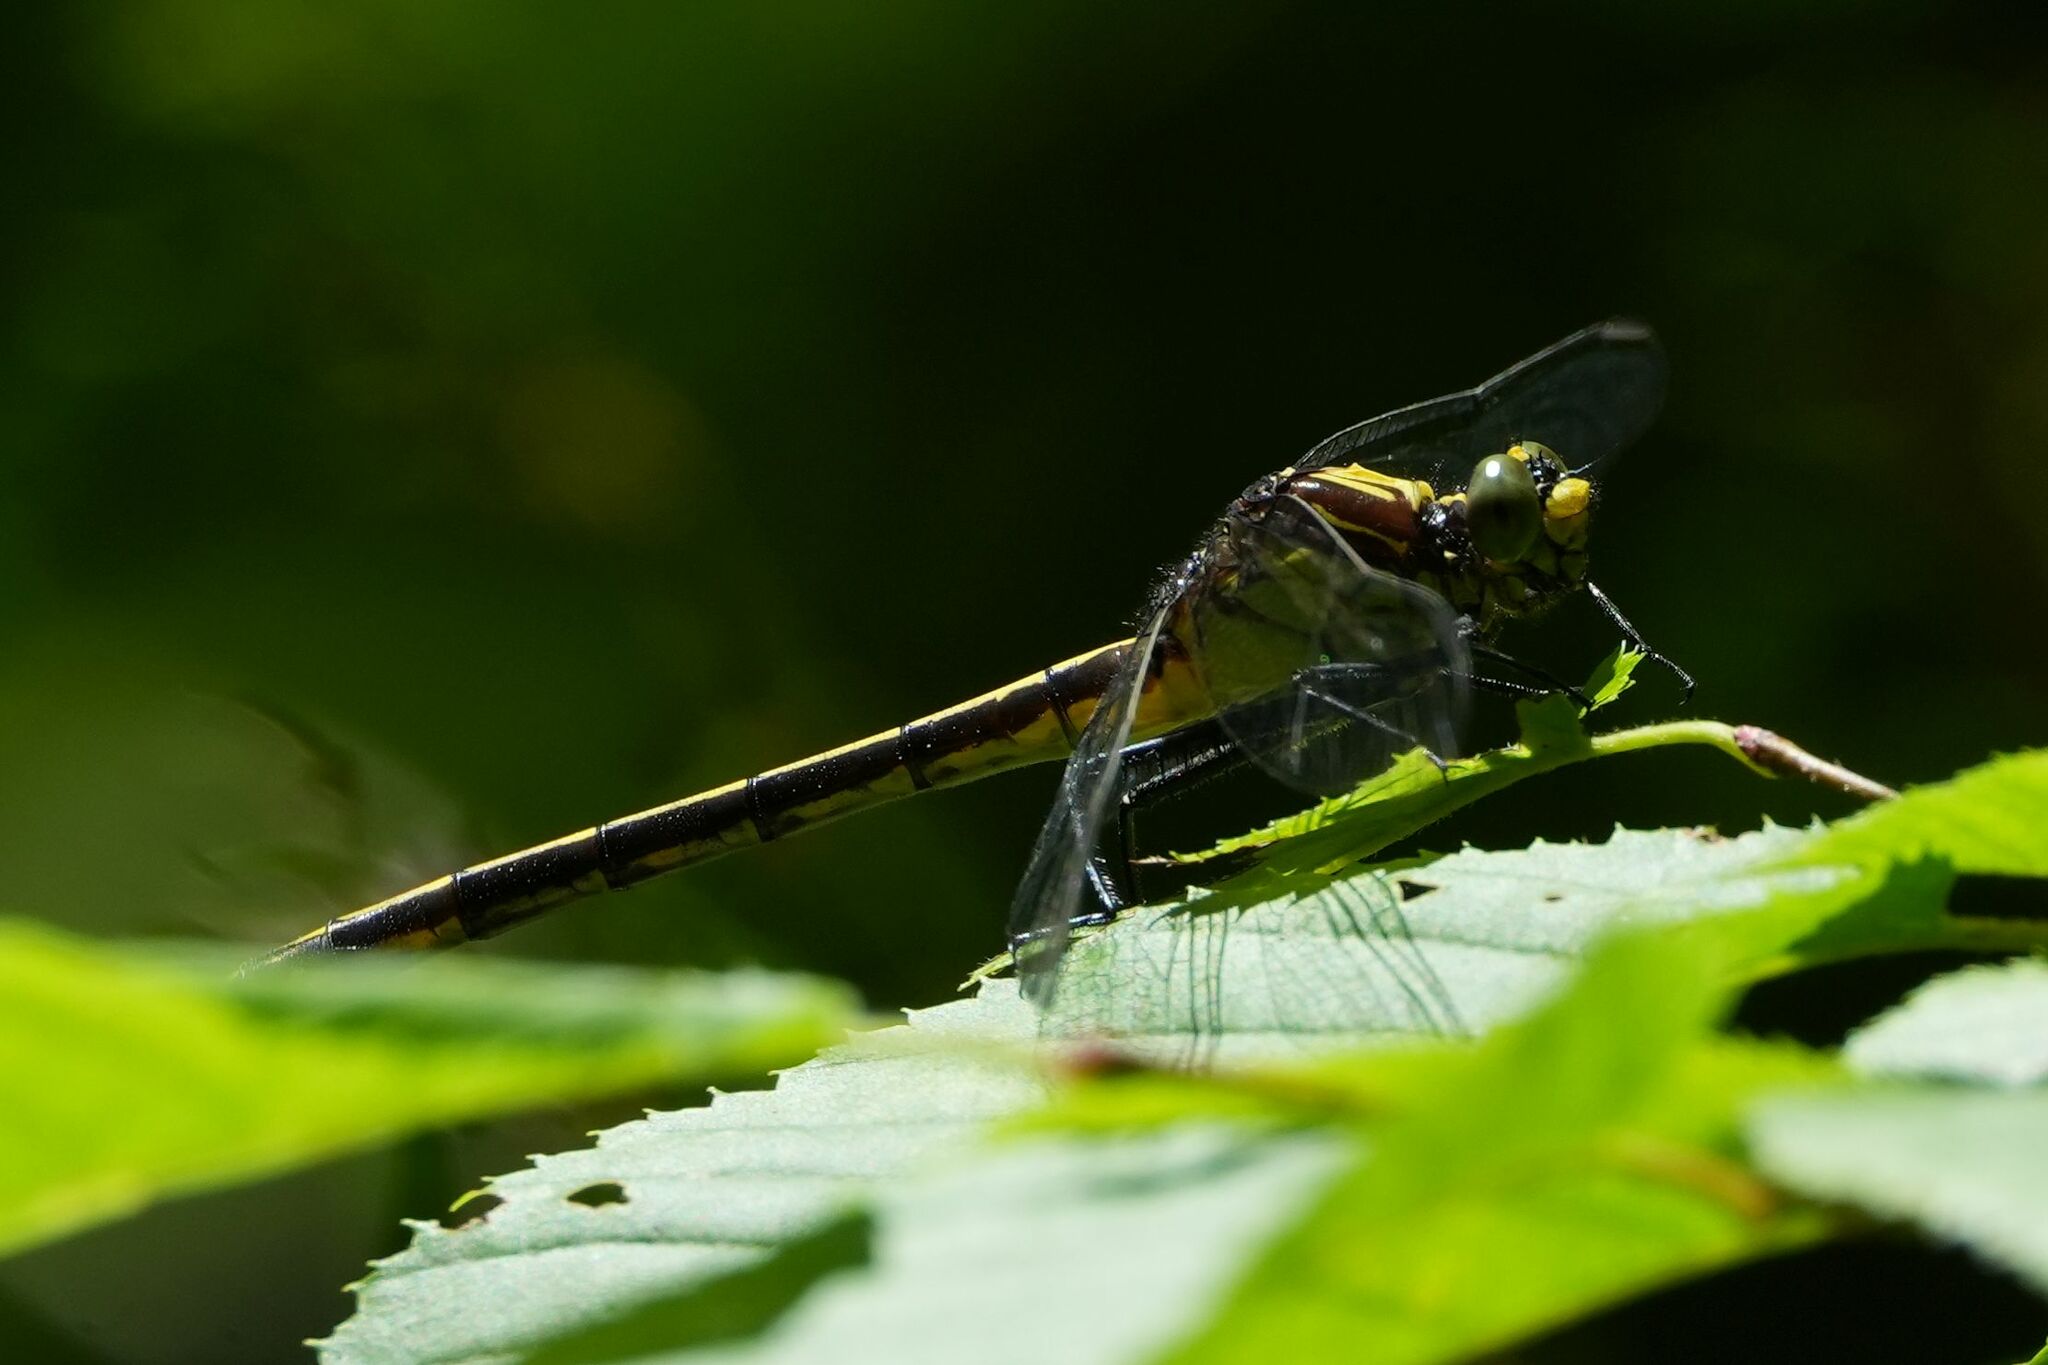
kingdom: Animalia
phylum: Arthropoda
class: Insecta
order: Odonata
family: Gomphidae
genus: Dromogomphus
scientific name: Dromogomphus spinosus
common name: Black-shouldered spinyleg
